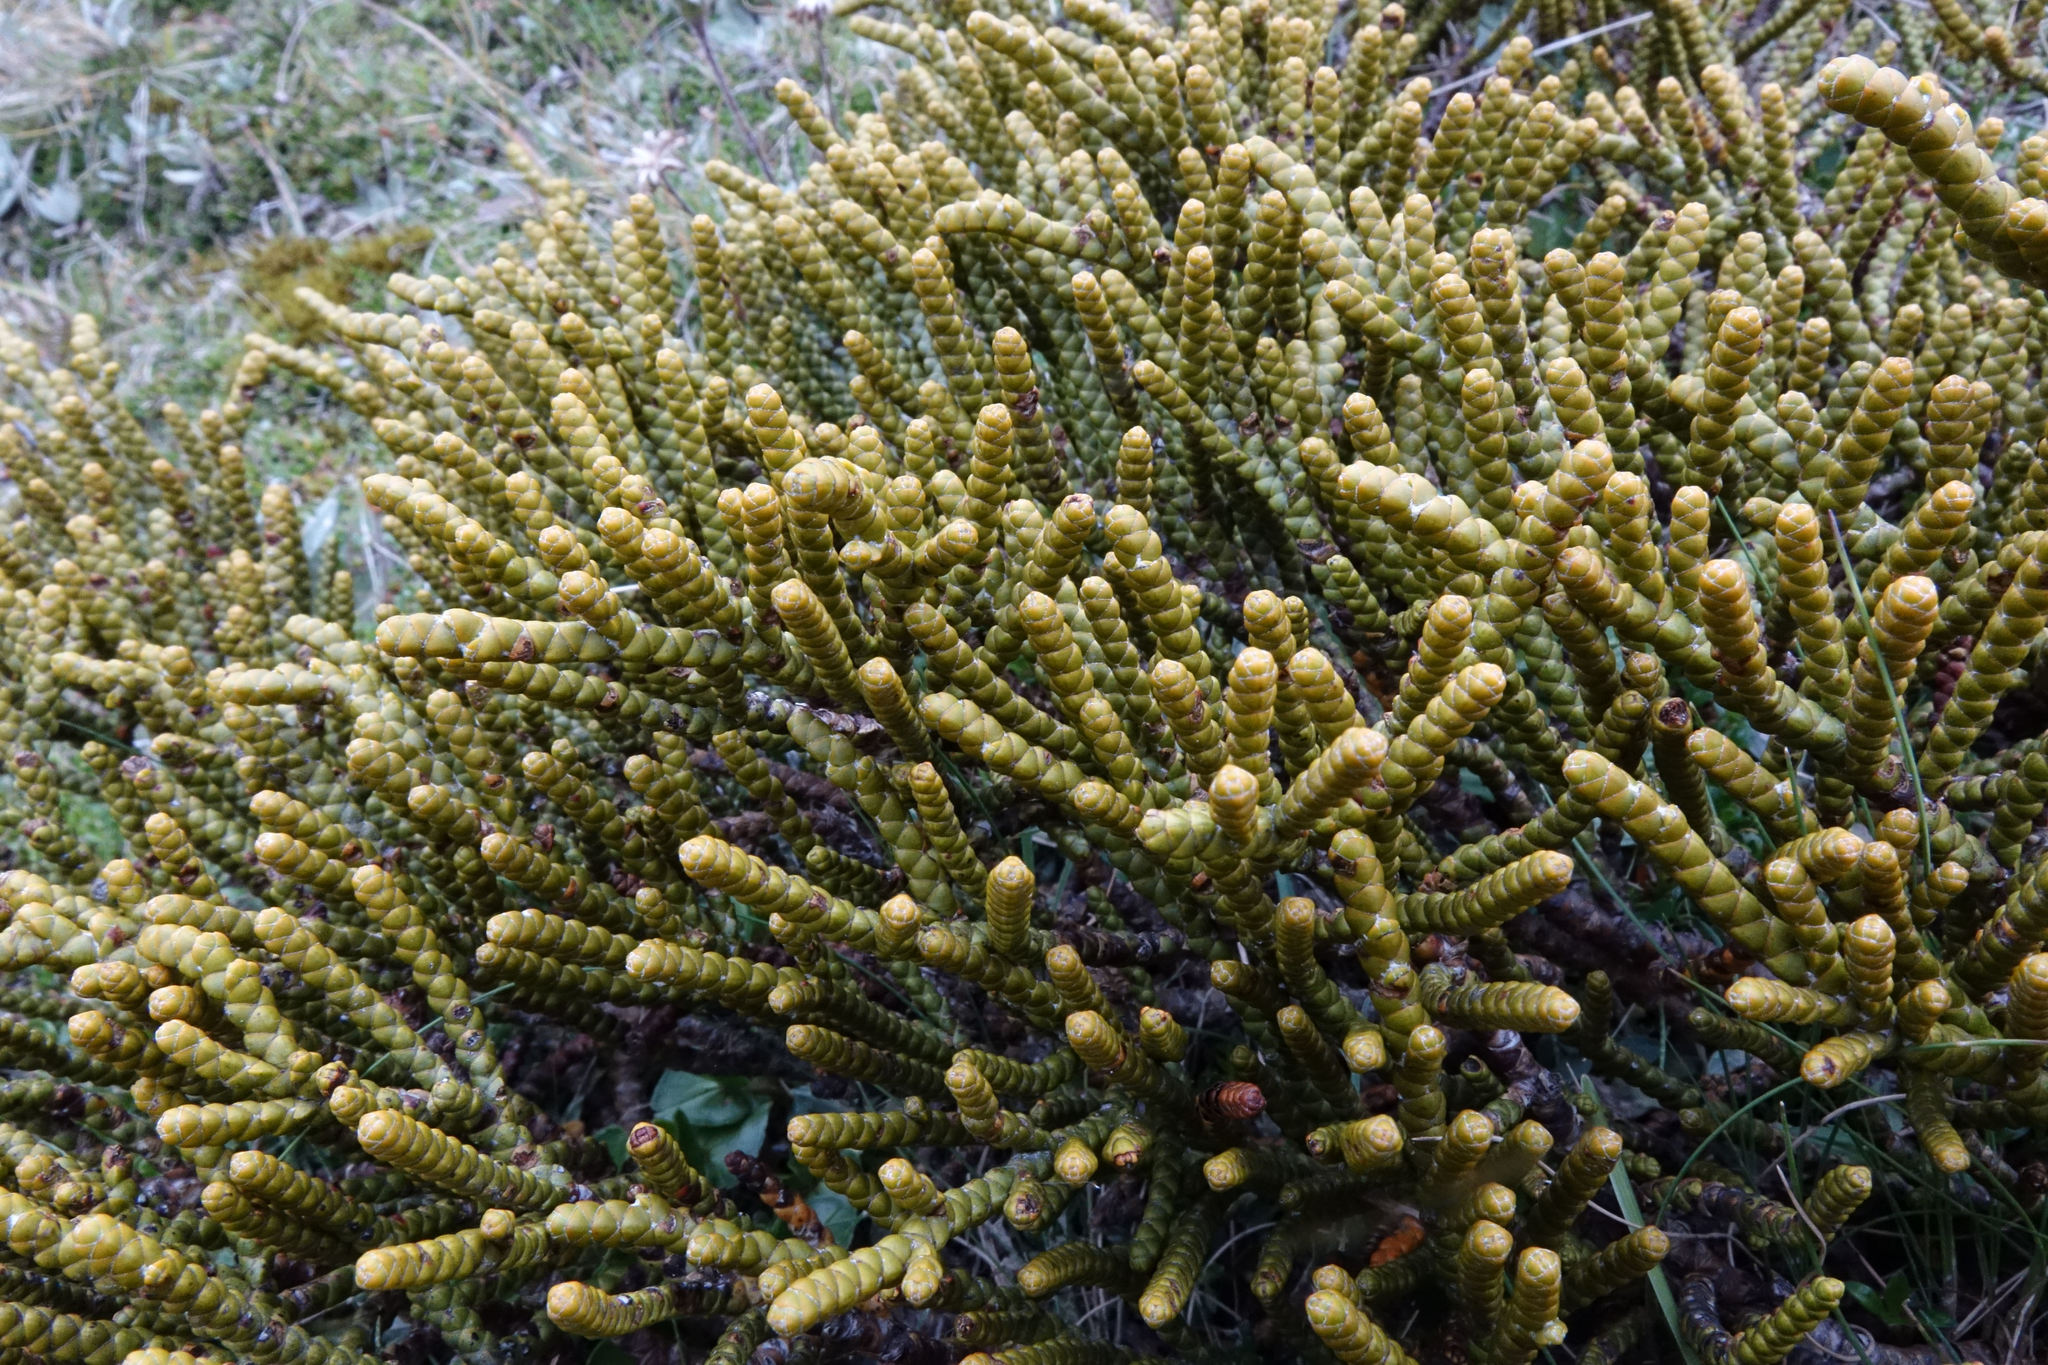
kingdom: Plantae
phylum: Tracheophyta
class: Magnoliopsida
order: Lamiales
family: Plantaginaceae
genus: Veronica
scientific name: Veronica hectorii
